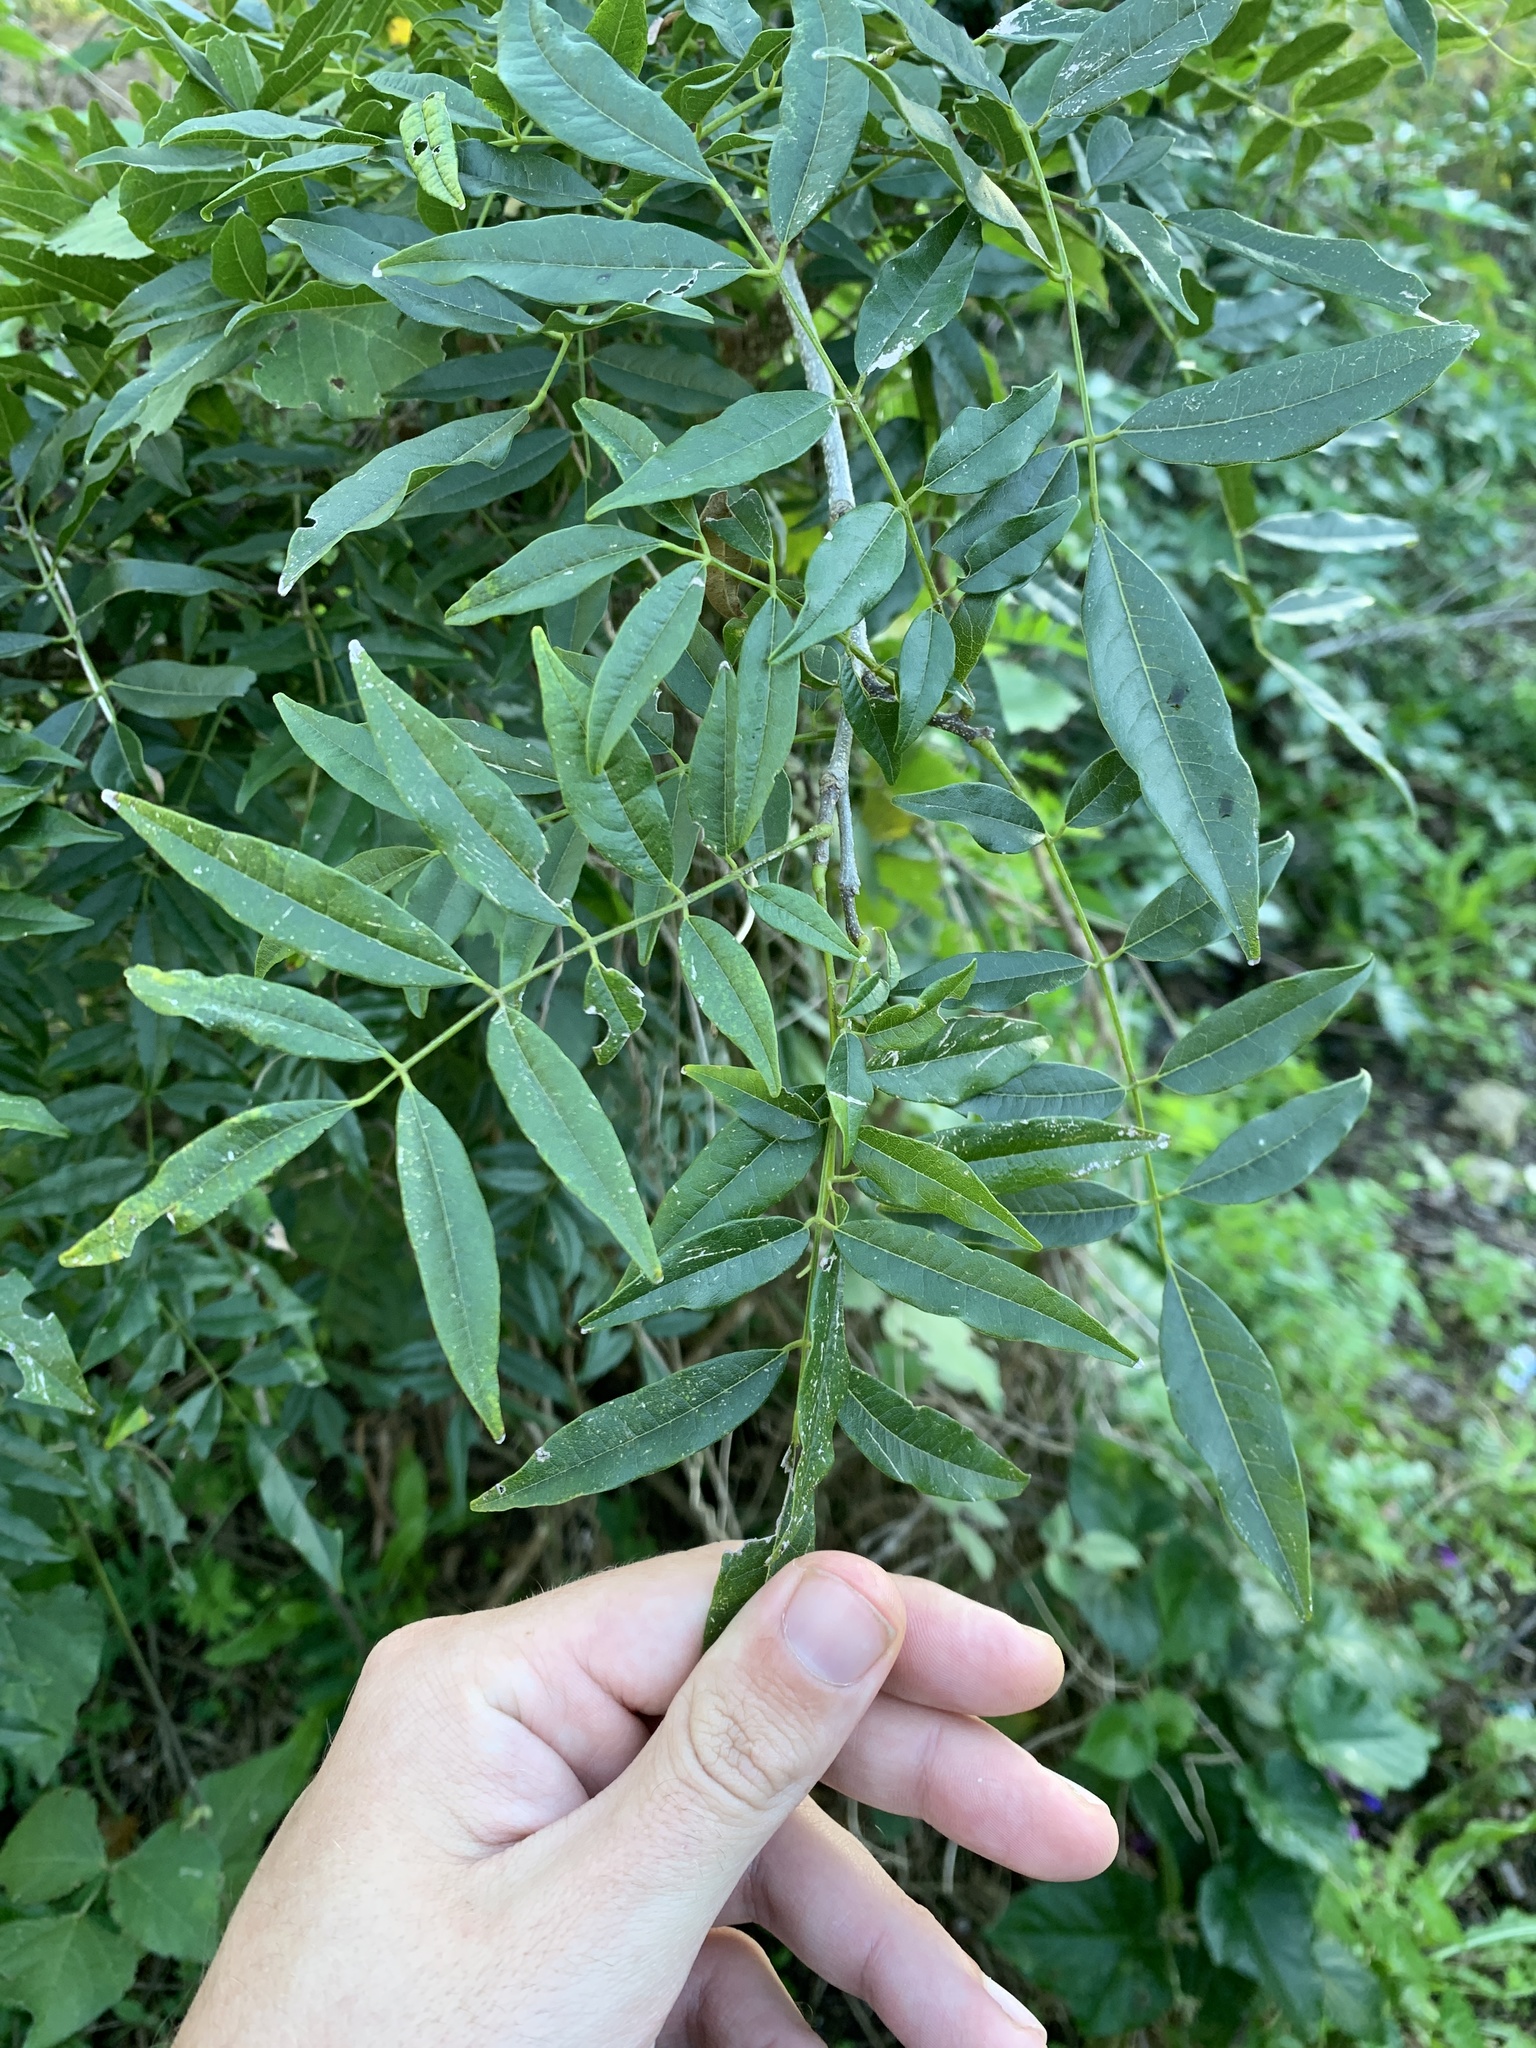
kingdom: Plantae
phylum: Tracheophyta
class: Magnoliopsida
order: Fabales
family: Fabaceae
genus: Lonchocarpus
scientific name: Lonchocarpus nitidus
